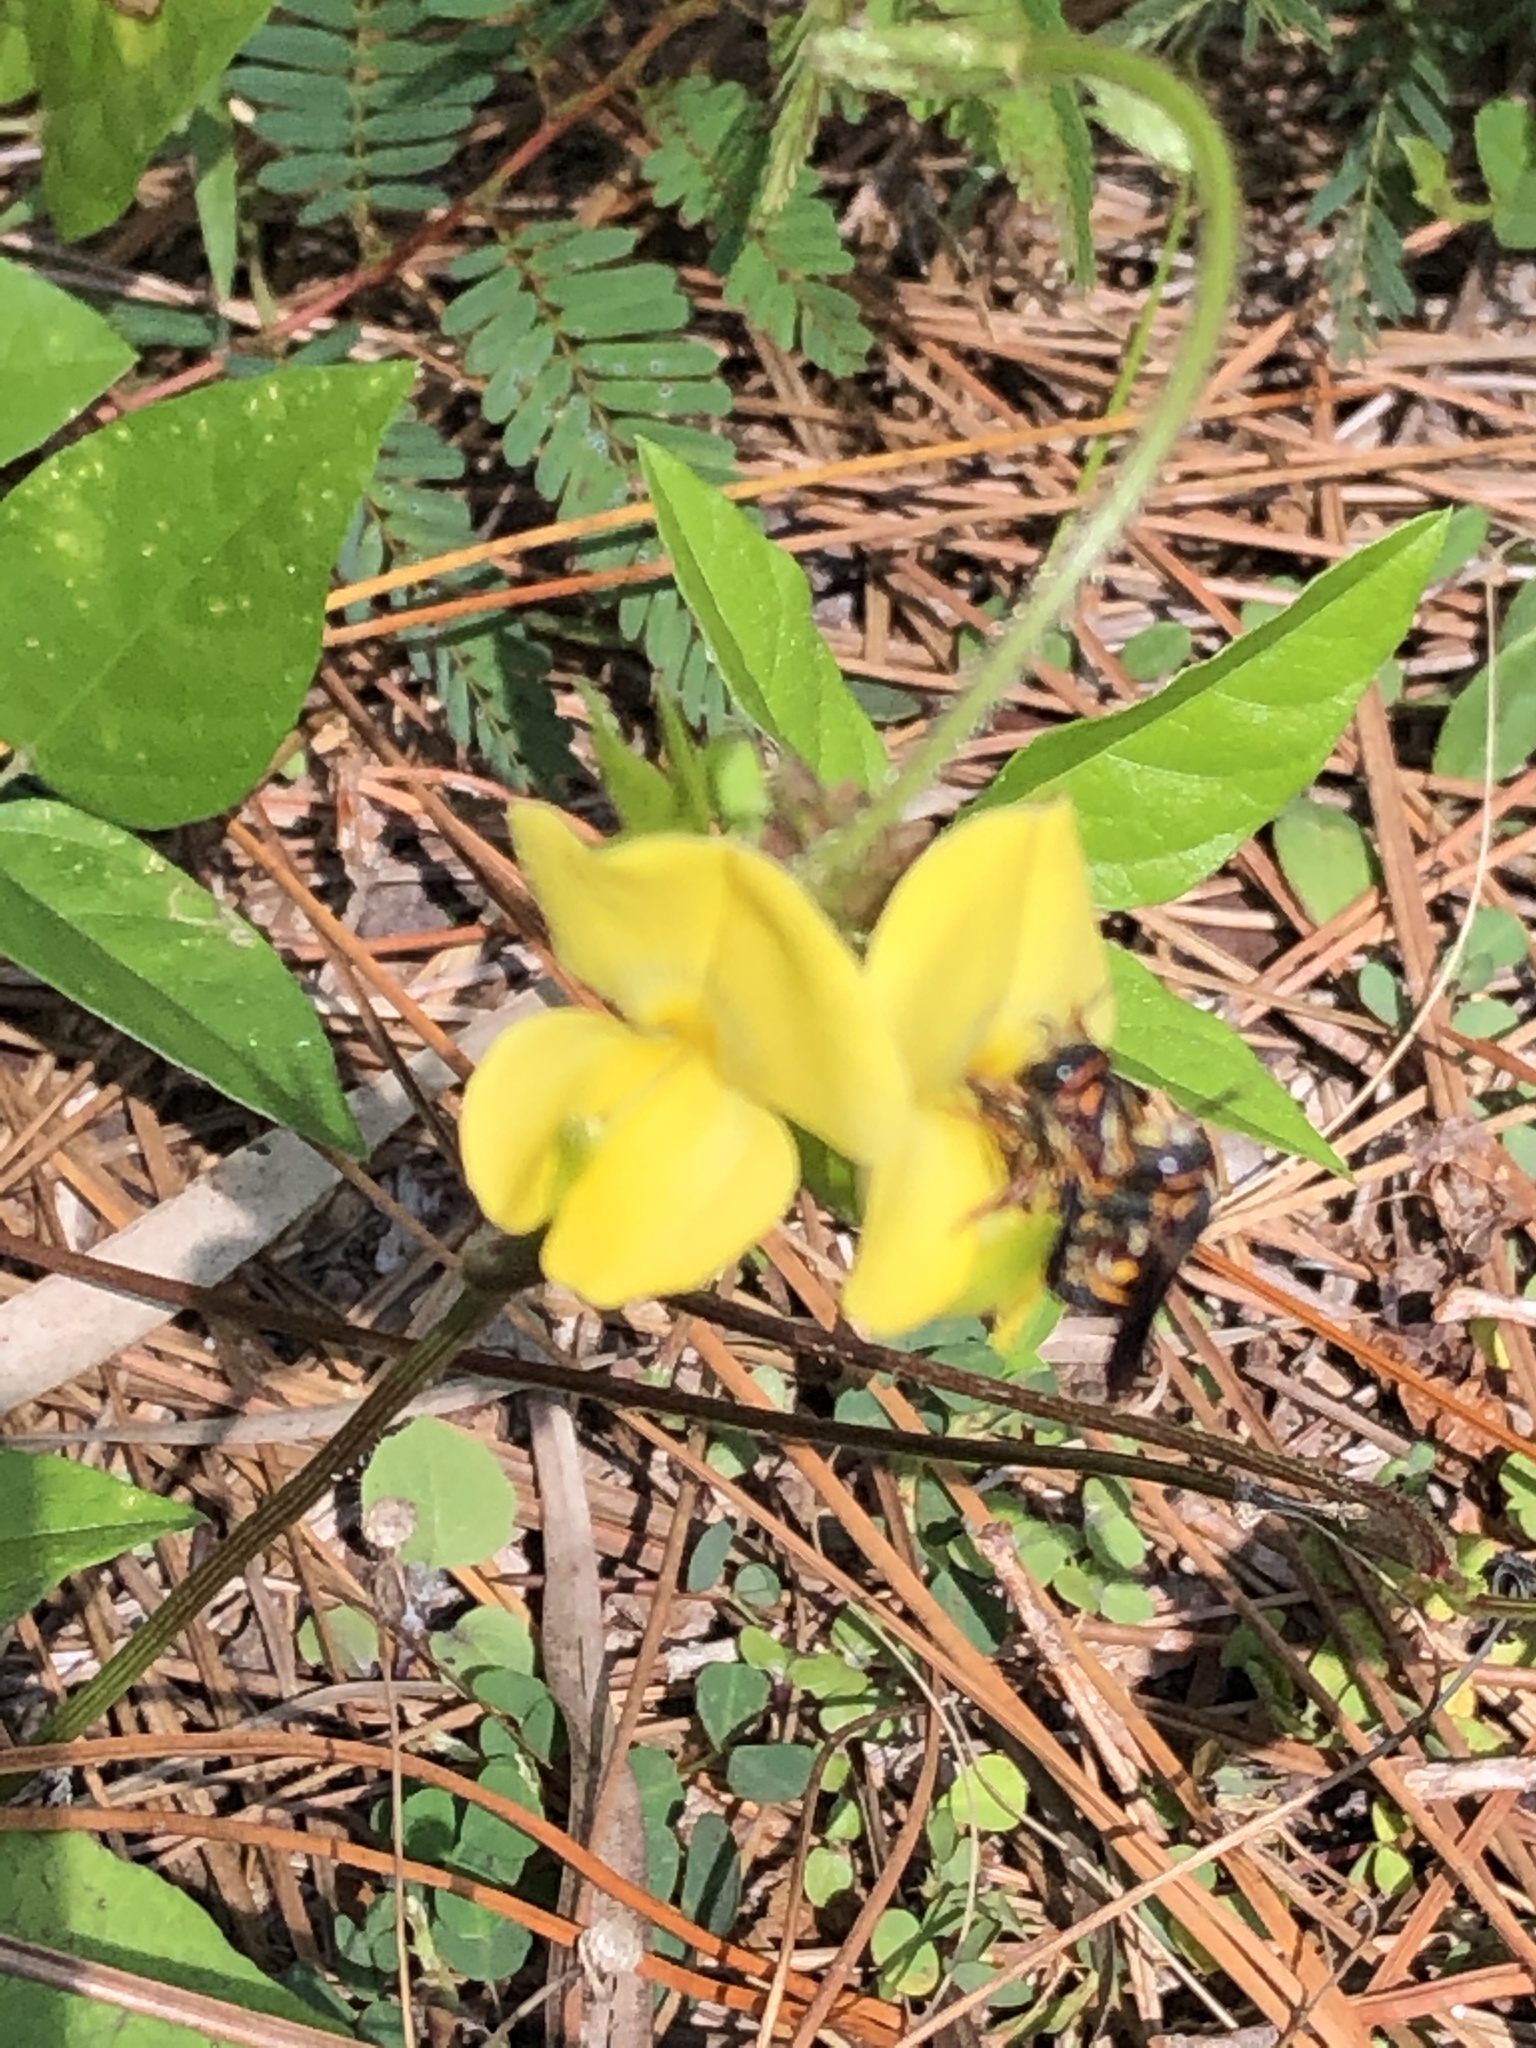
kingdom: Plantae
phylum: Tracheophyta
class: Magnoliopsida
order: Fabales
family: Fabaceae
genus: Vigna
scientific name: Vigna luteola
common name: Hairypod cowpea
